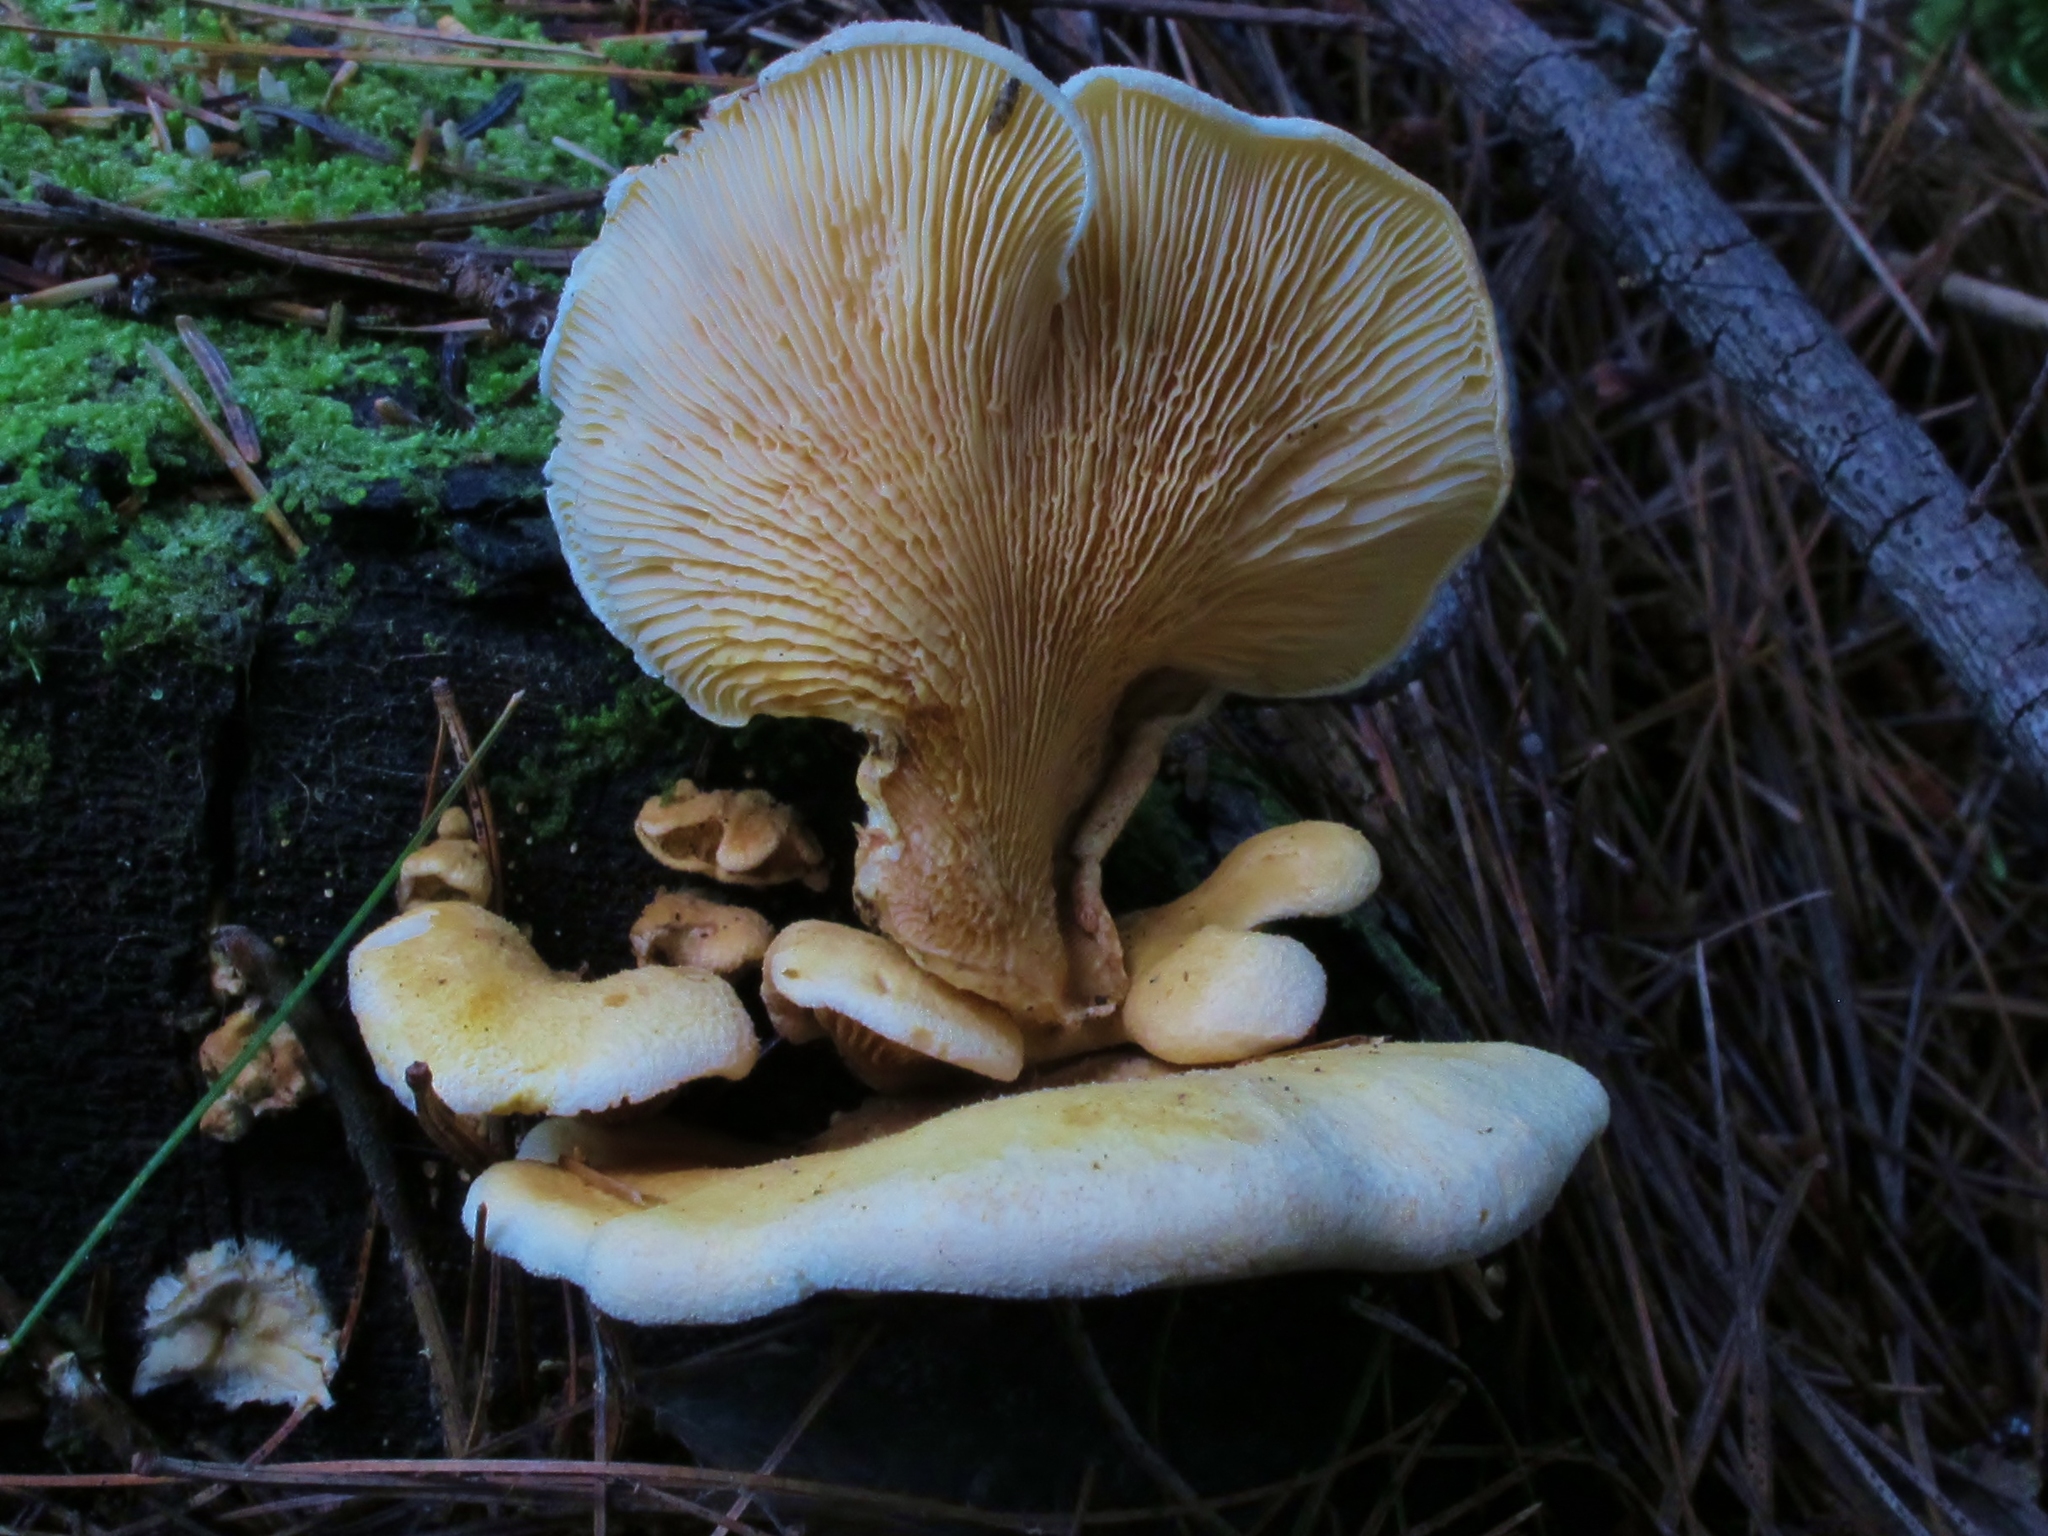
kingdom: Fungi
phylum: Basidiomycota
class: Agaricomycetes
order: Boletales
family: Tapinellaceae
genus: Tapinella
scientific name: Tapinella panuoides
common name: Oyster rollrim
